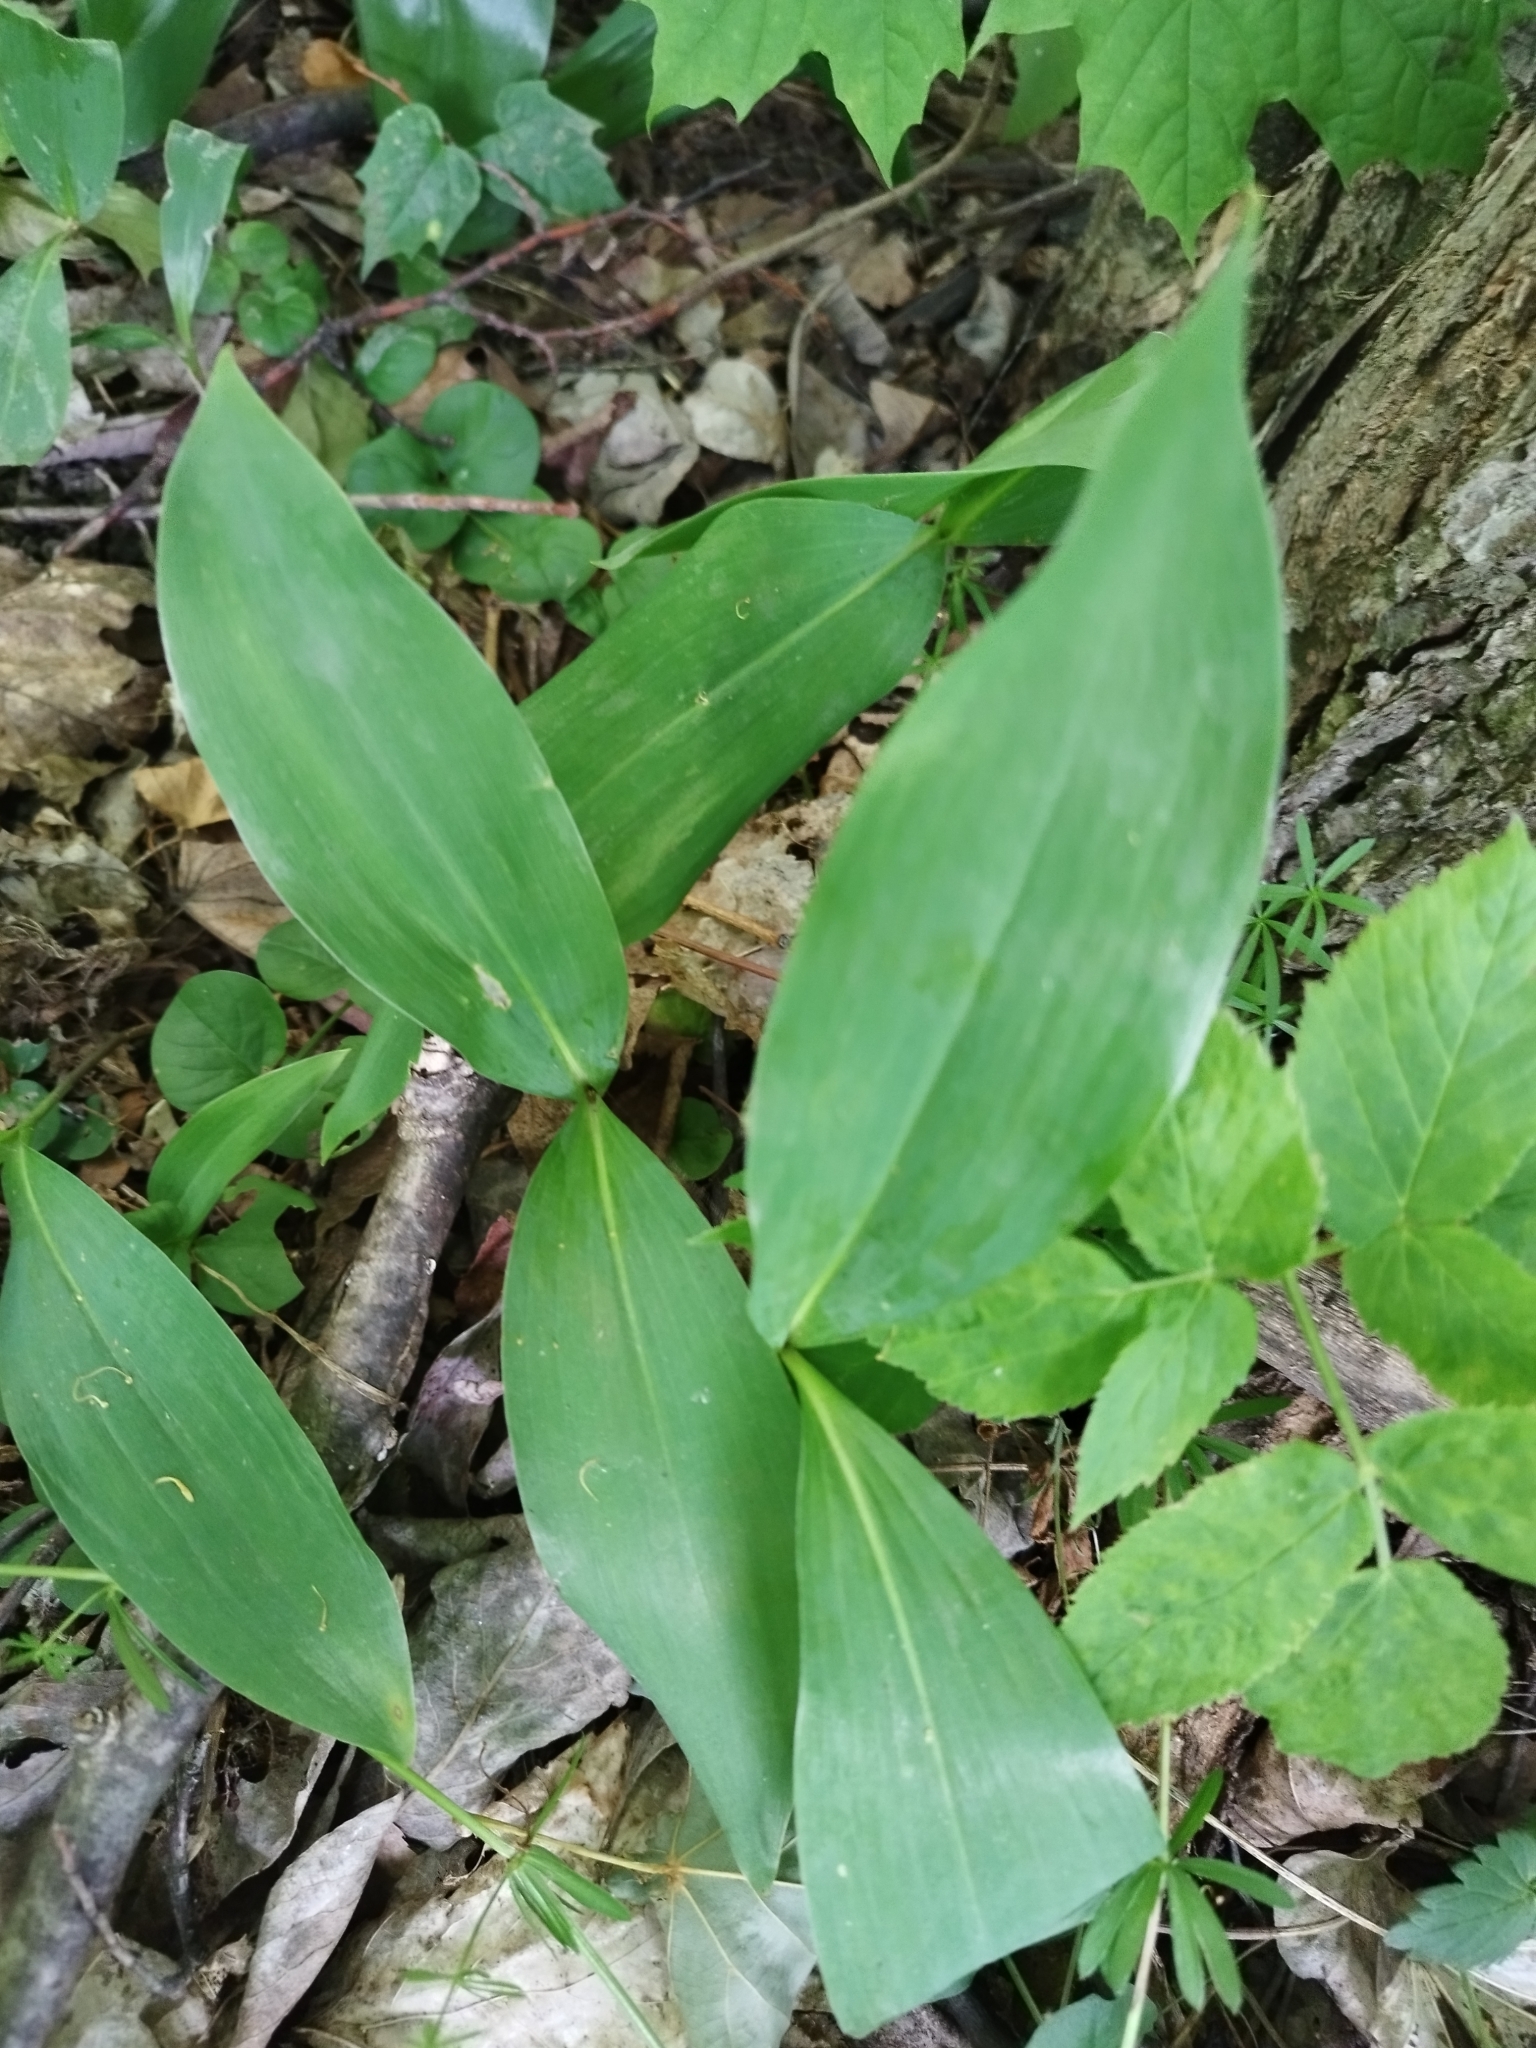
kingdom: Plantae
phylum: Tracheophyta
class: Liliopsida
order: Asparagales
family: Asparagaceae
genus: Convallaria
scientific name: Convallaria majalis
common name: Lily-of-the-valley
